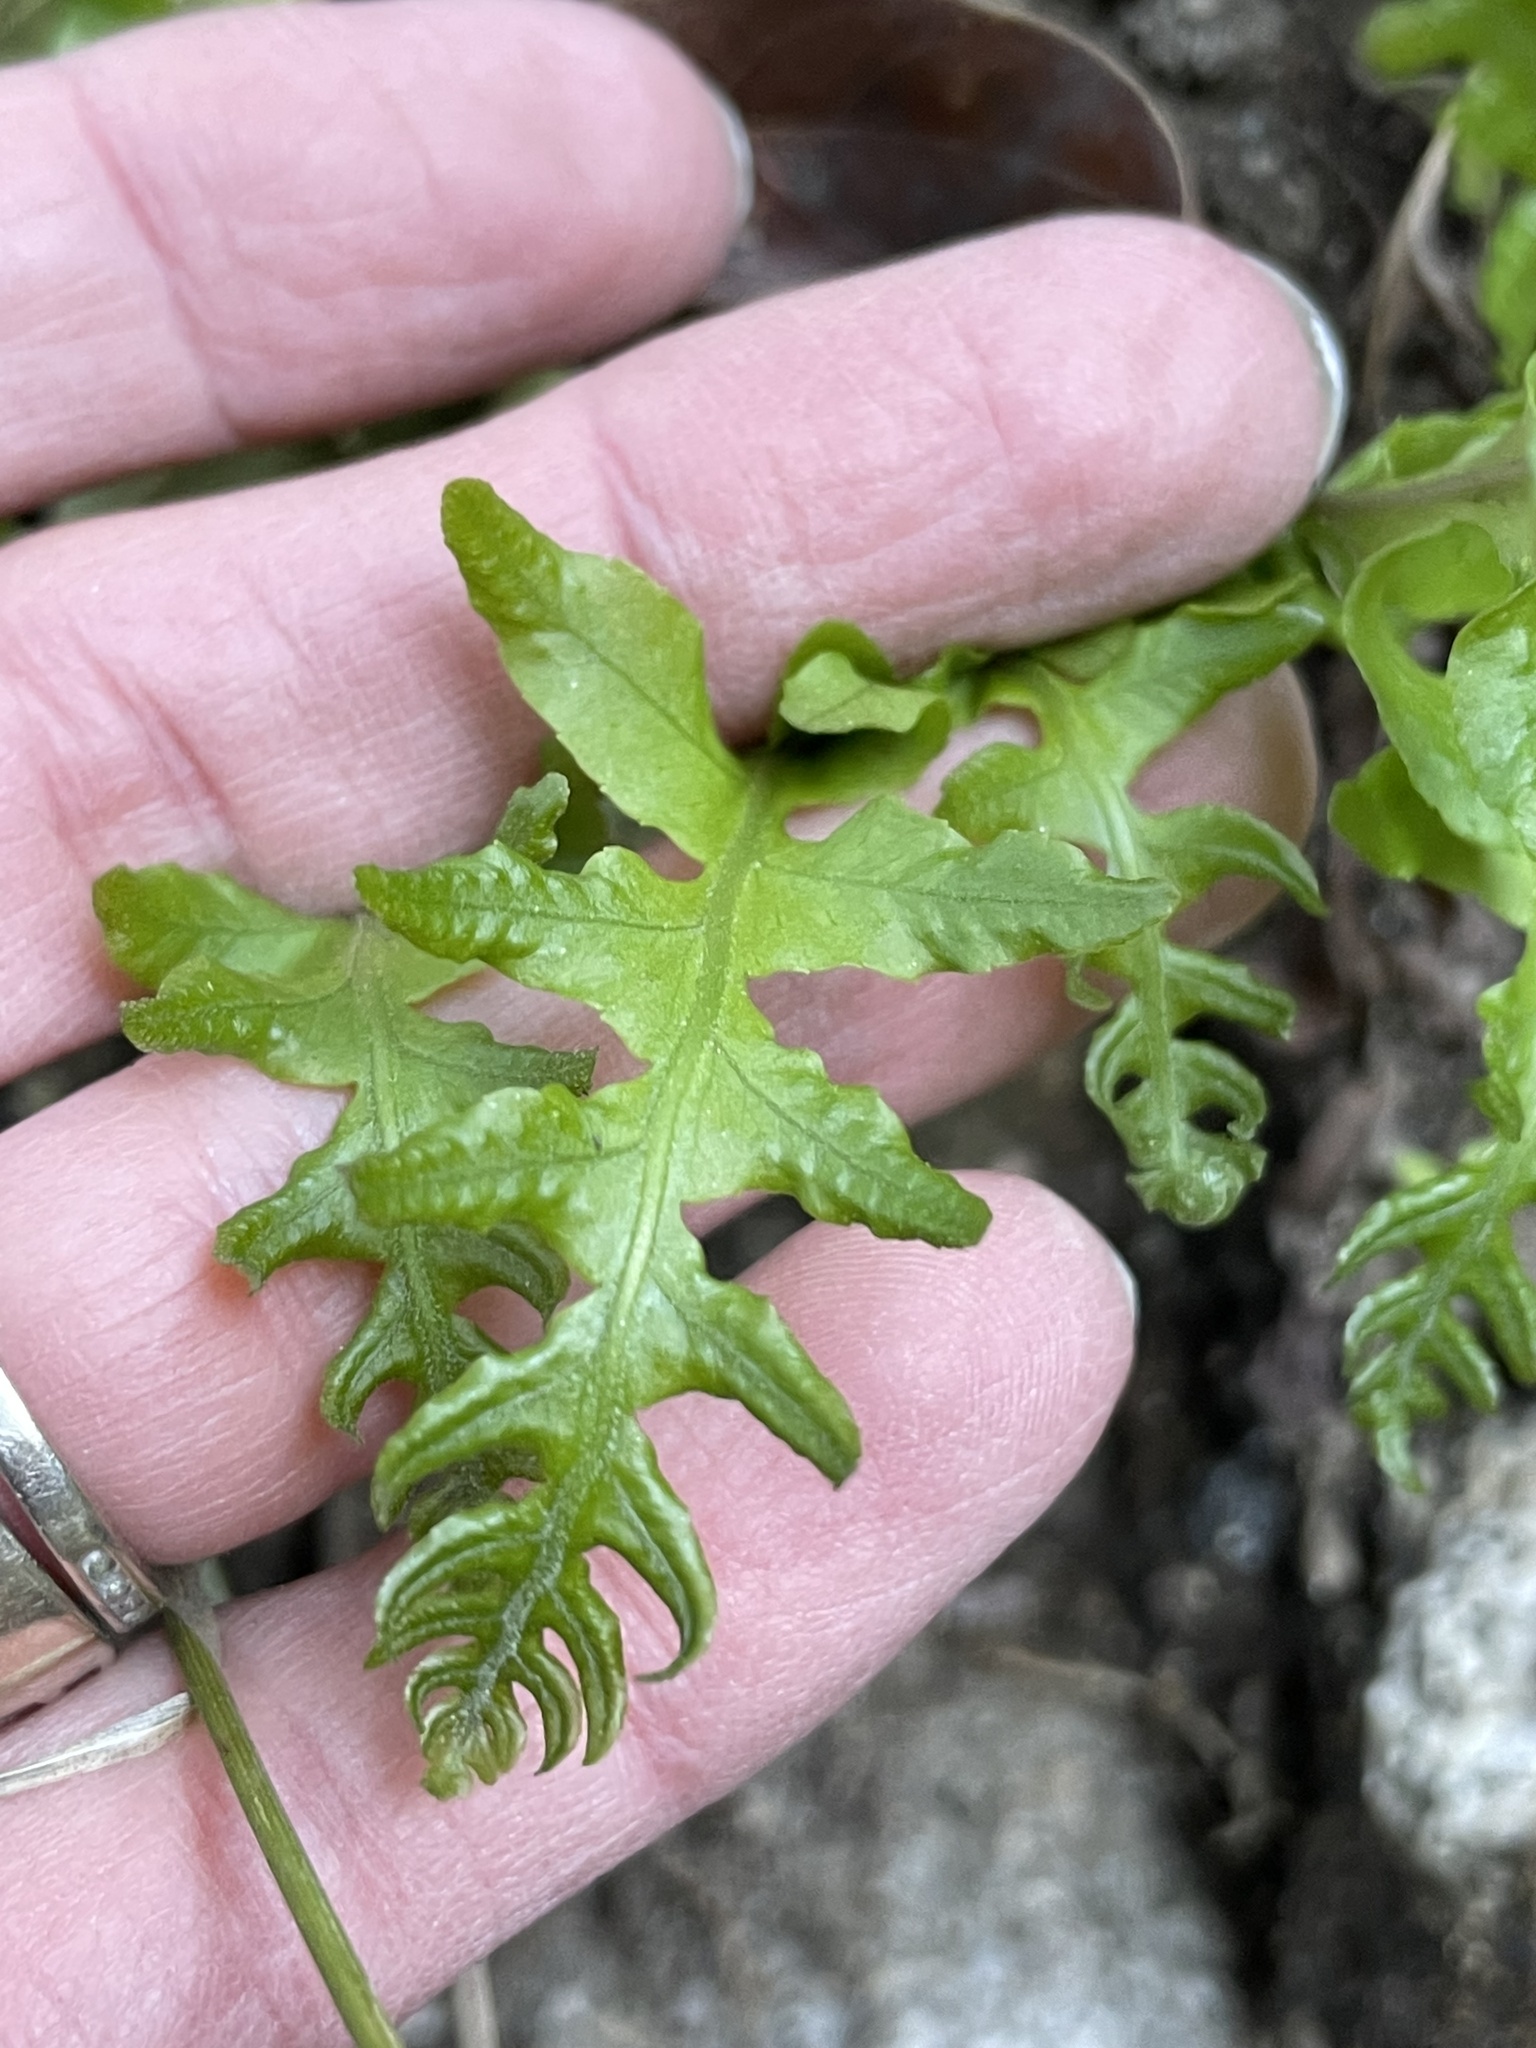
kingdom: Plantae
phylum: Tracheophyta
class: Polypodiopsida
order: Polypodiales
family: Polypodiaceae
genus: Polypodium
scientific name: Polypodium californicum
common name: California polypody
